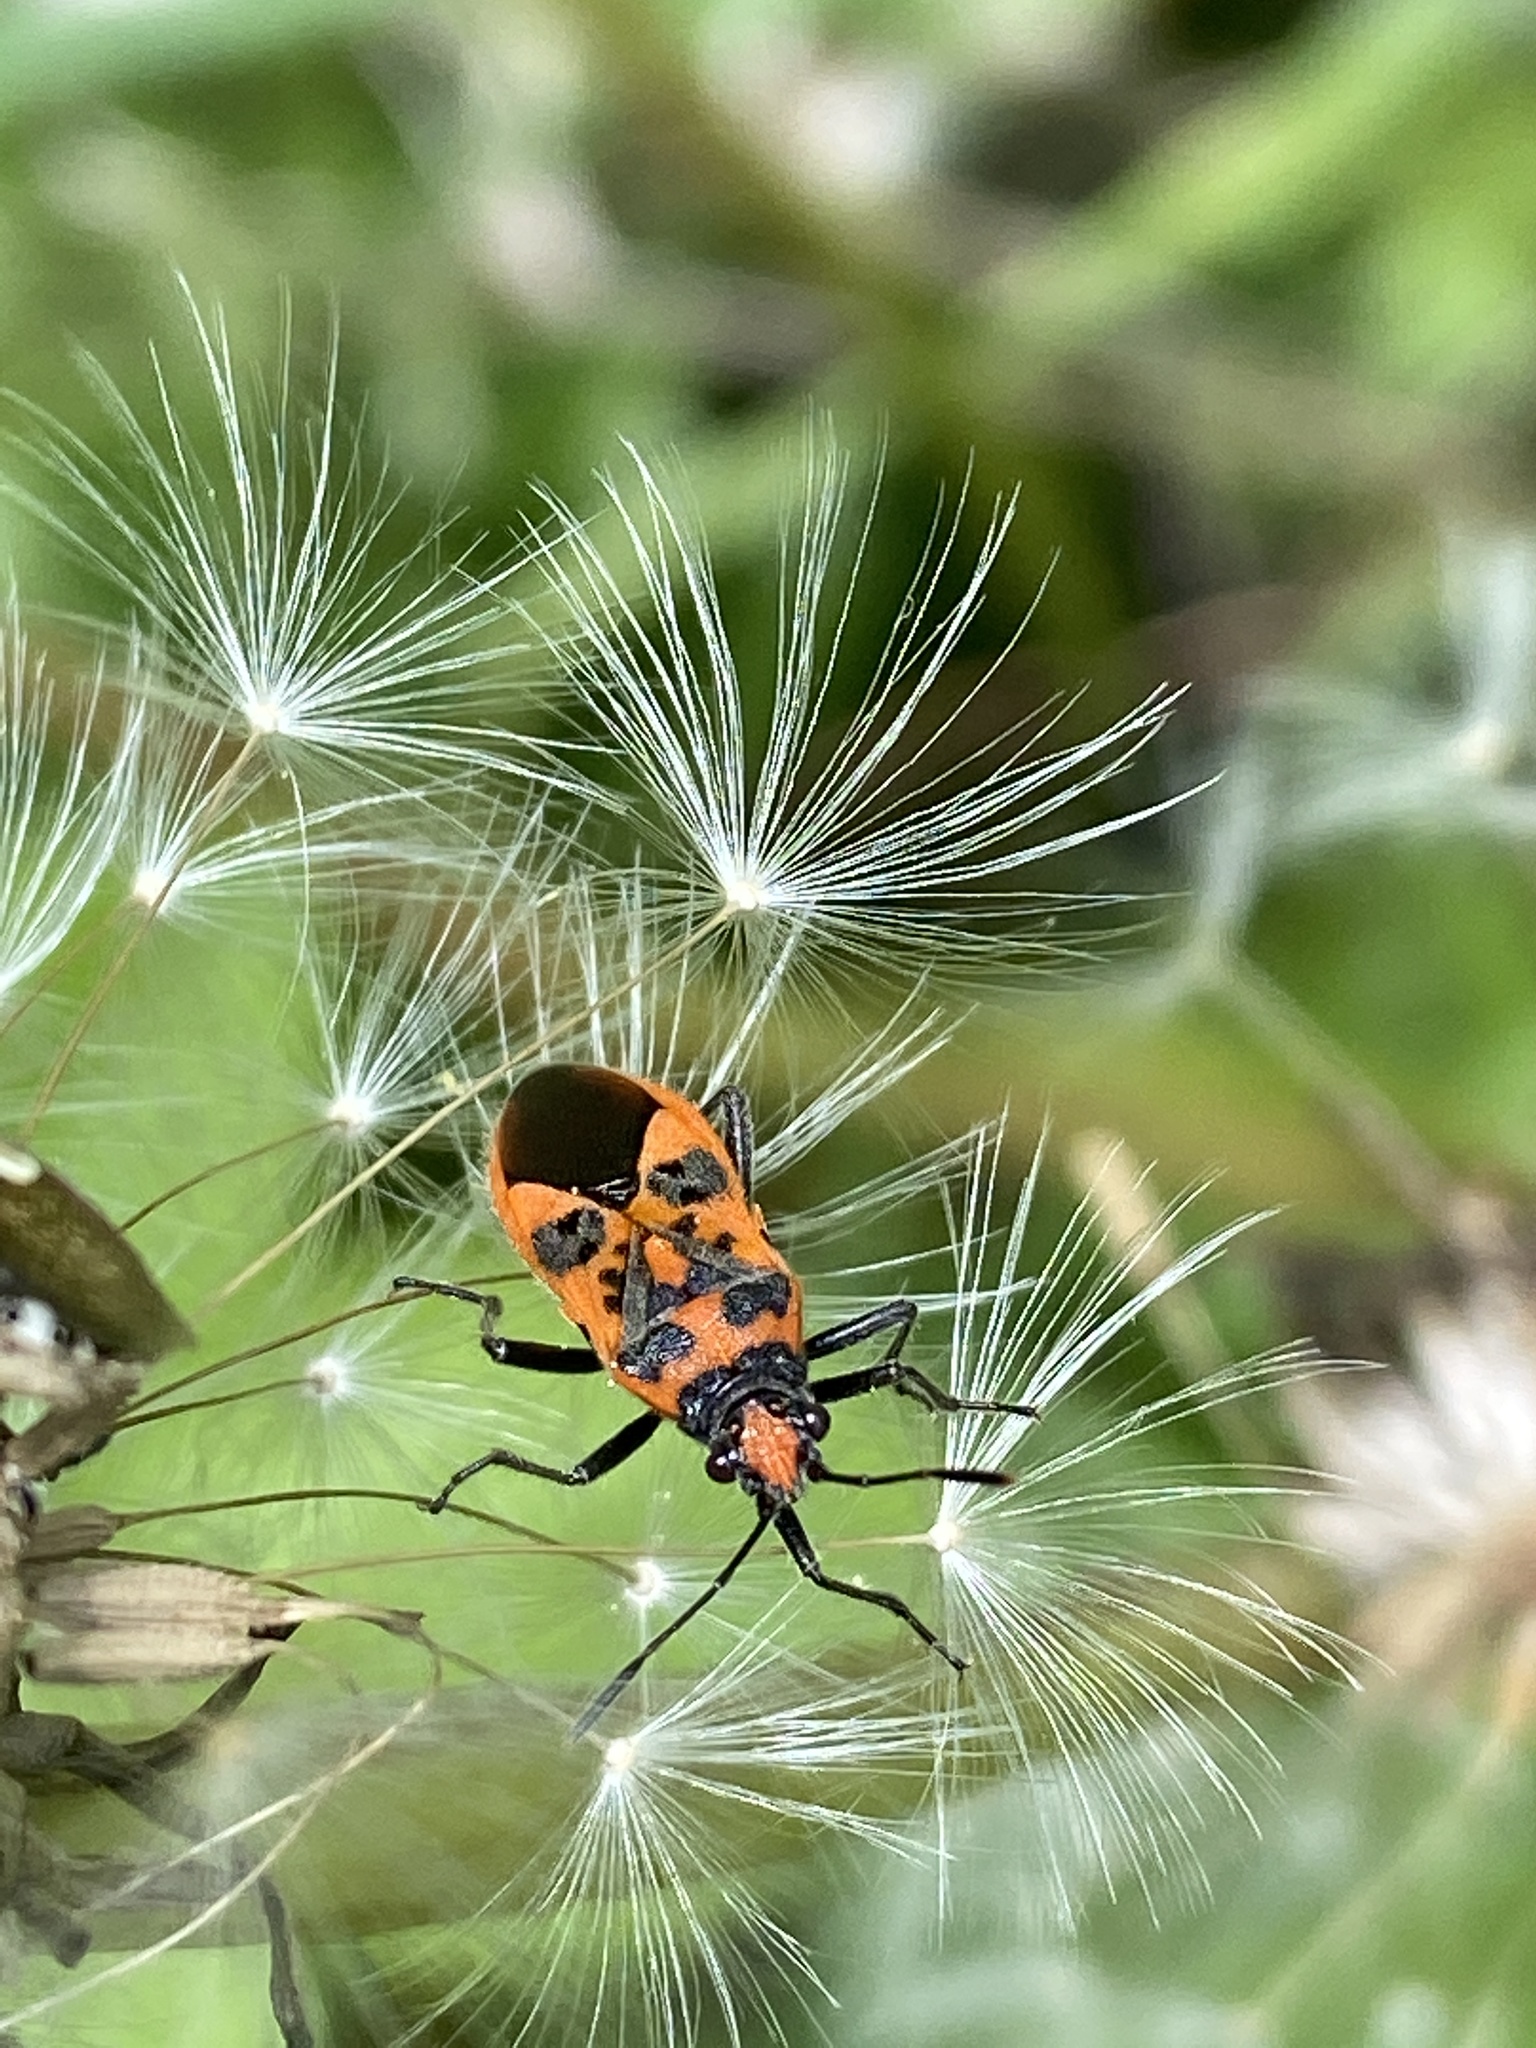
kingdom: Animalia
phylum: Arthropoda
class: Insecta
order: Hemiptera
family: Rhopalidae
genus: Corizus
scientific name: Corizus hyoscyami
